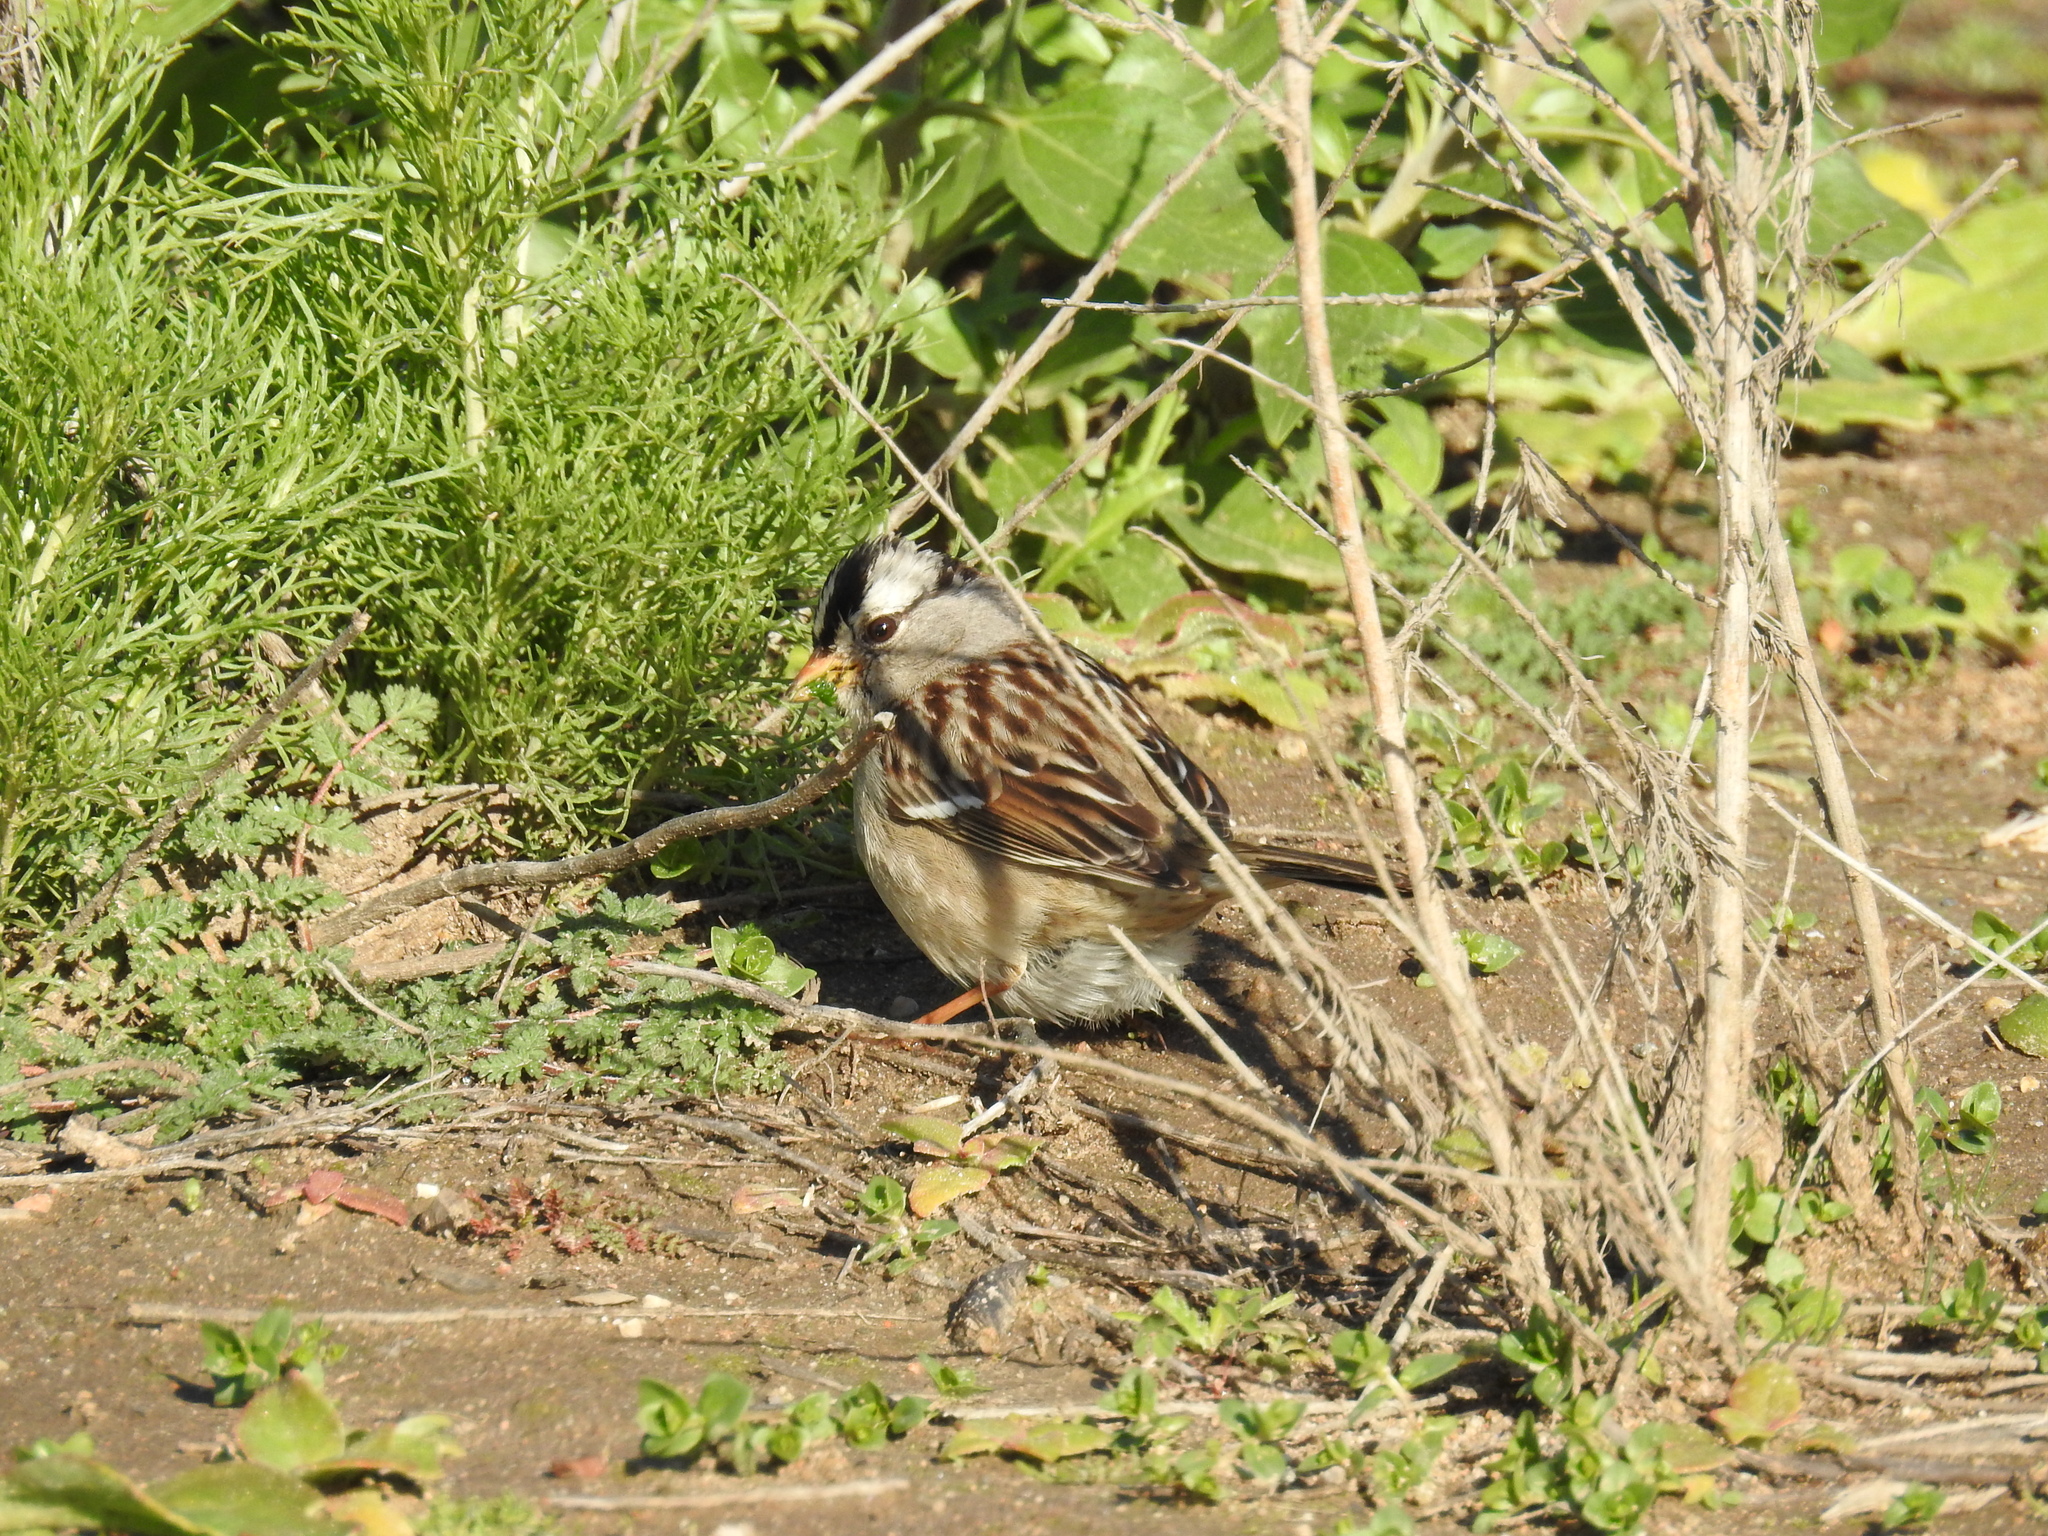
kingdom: Animalia
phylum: Chordata
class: Aves
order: Passeriformes
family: Passerellidae
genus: Zonotrichia
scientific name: Zonotrichia leucophrys
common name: White-crowned sparrow
